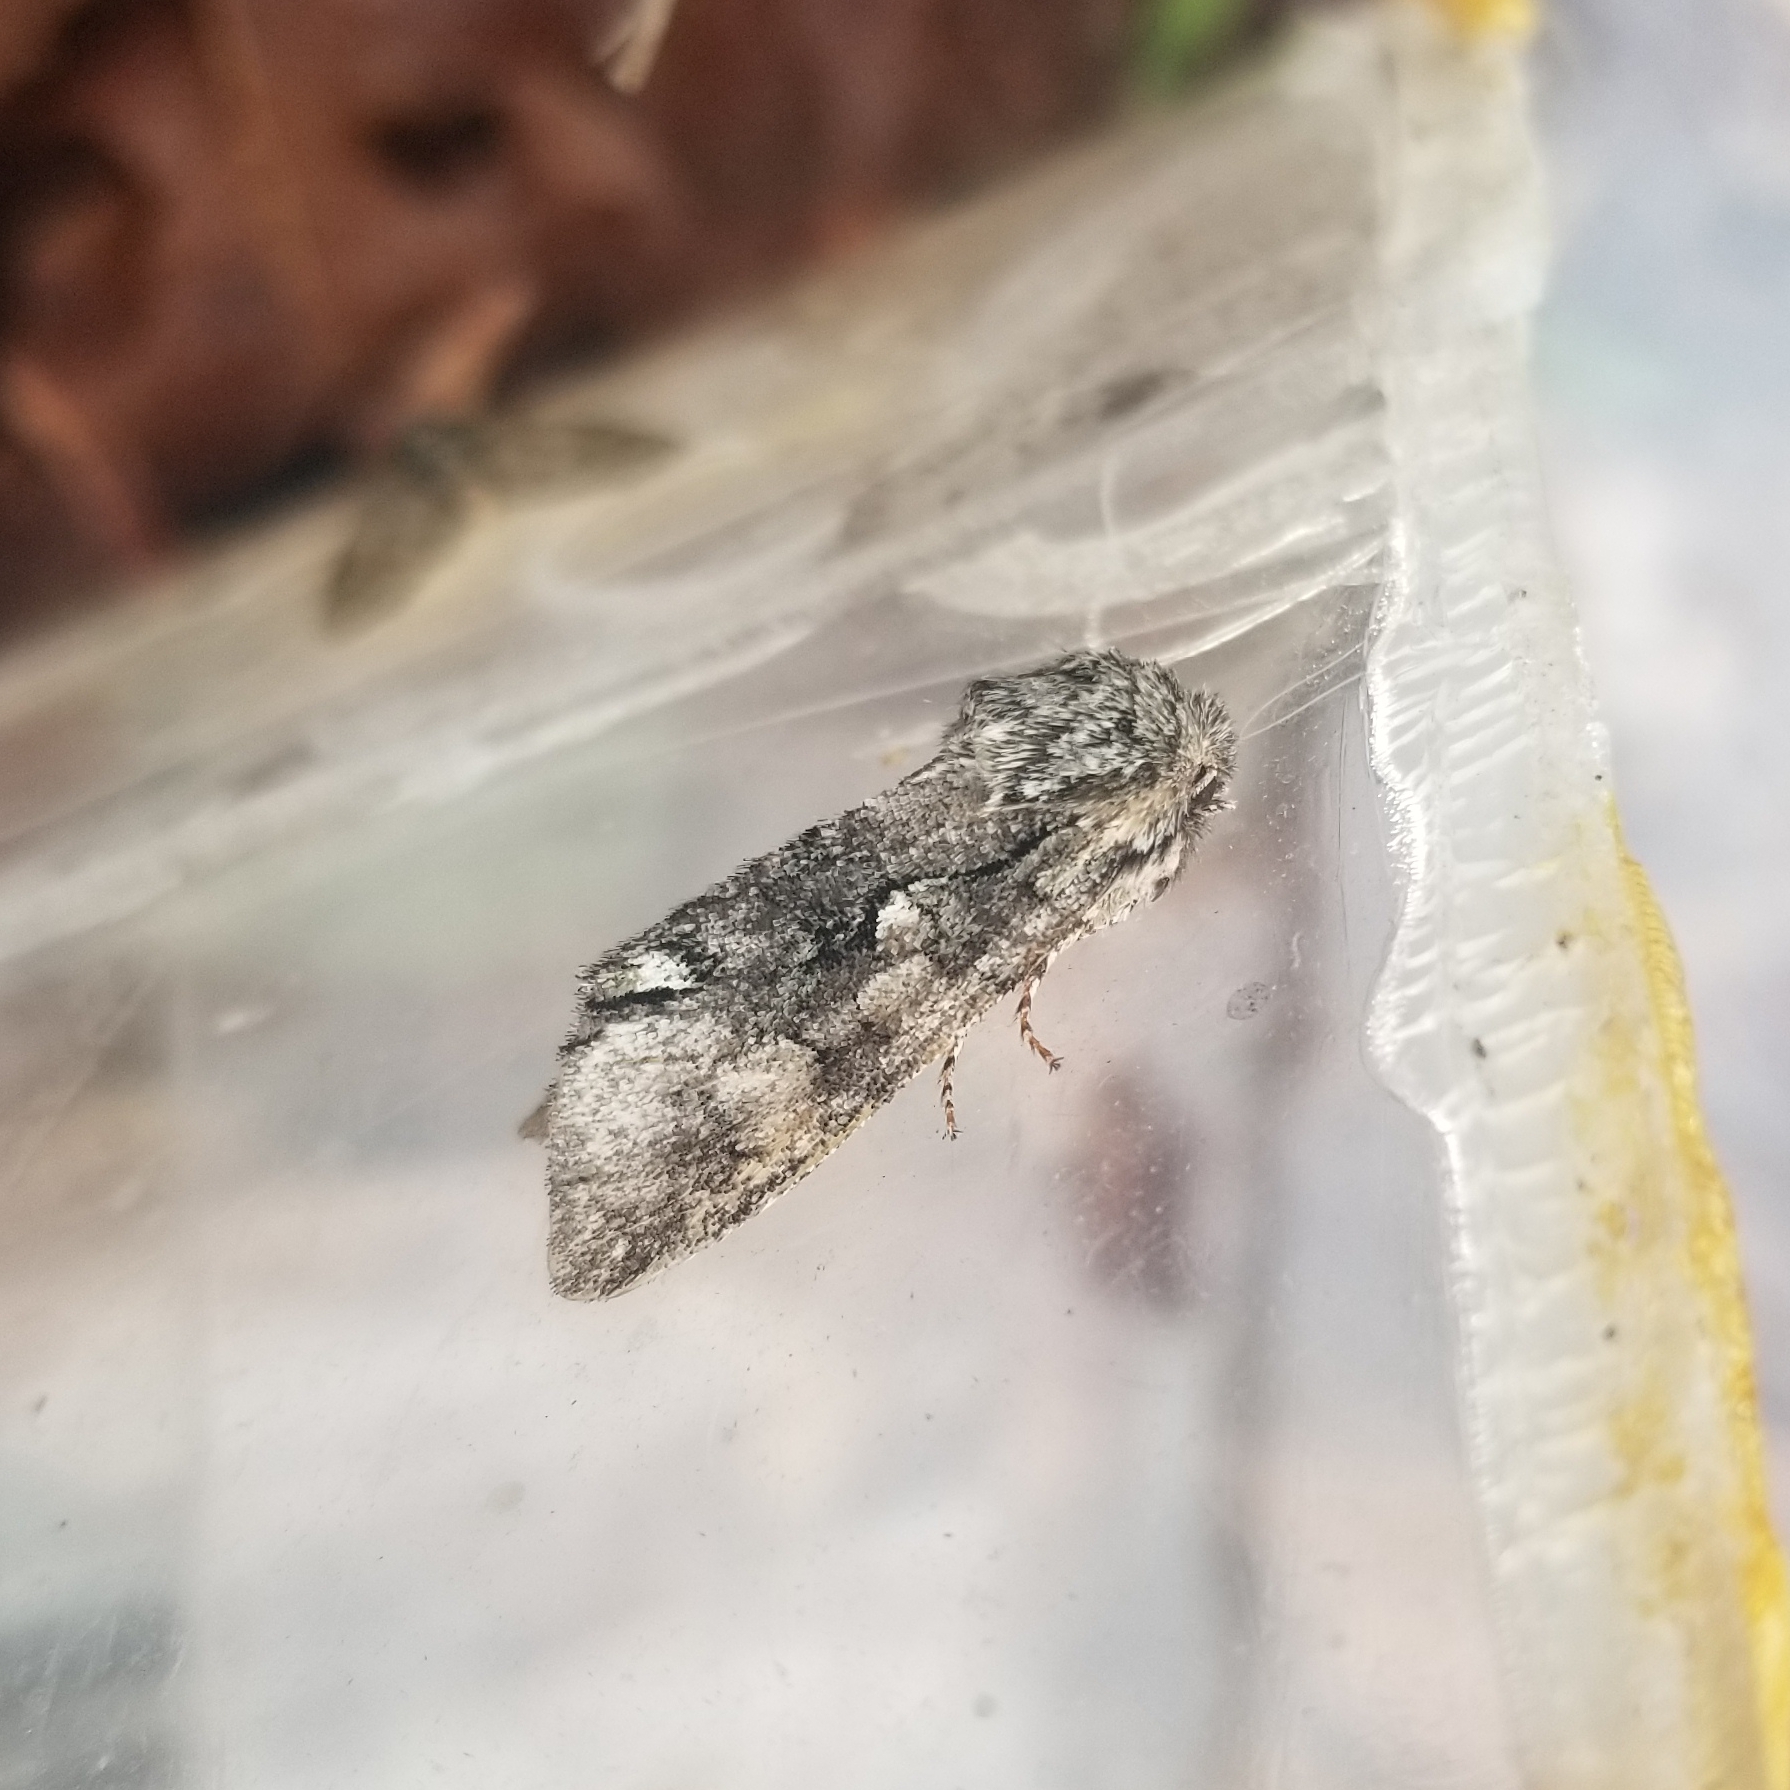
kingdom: Animalia
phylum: Arthropoda
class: Insecta
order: Lepidoptera
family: Noctuidae
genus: Psaphida
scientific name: Psaphida resumens
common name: Figure-eight sallow
